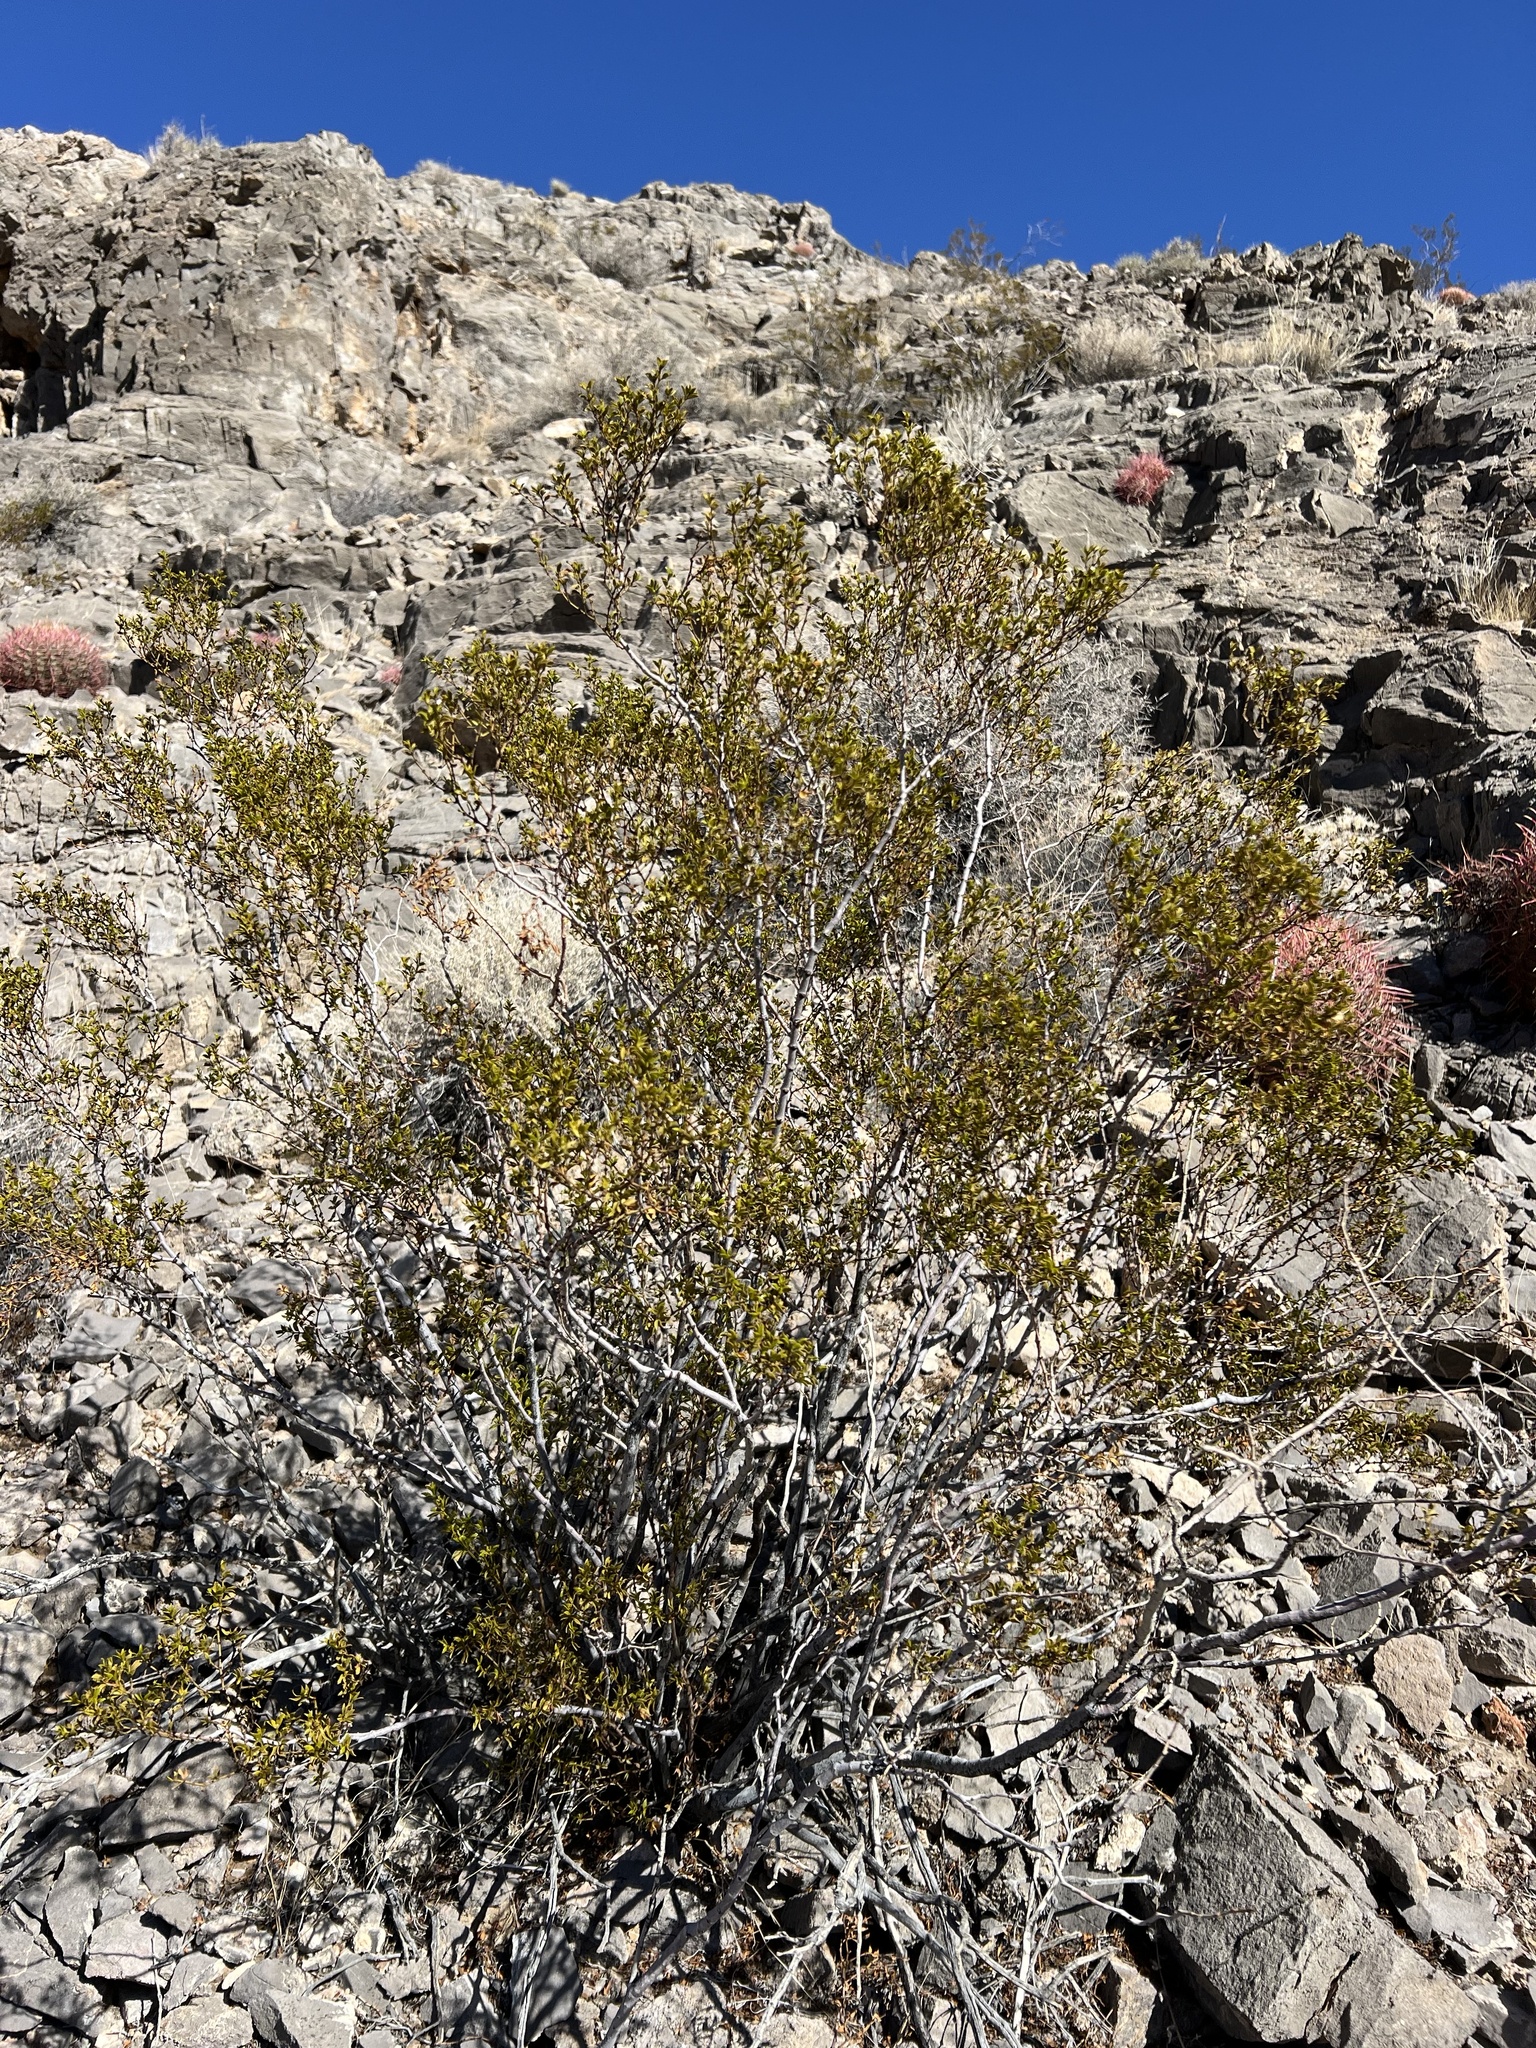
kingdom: Plantae
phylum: Tracheophyta
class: Magnoliopsida
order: Zygophyllales
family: Zygophyllaceae
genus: Larrea
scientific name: Larrea tridentata
